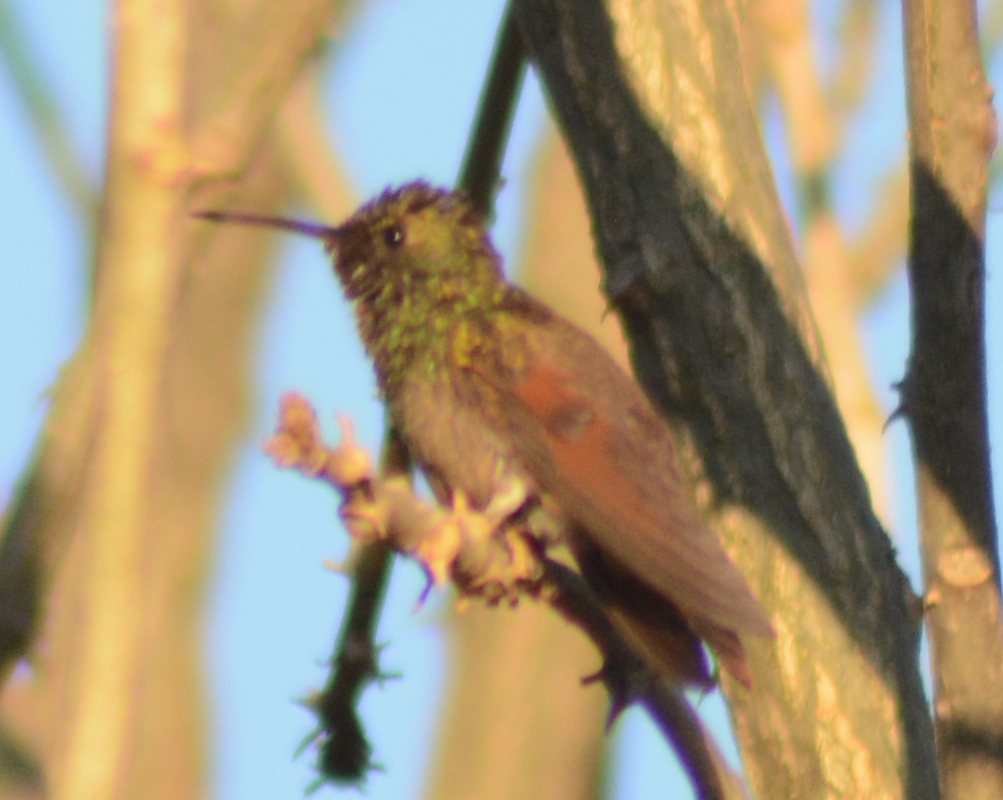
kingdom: Animalia
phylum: Chordata
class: Aves
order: Apodiformes
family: Trochilidae
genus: Saucerottia
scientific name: Saucerottia beryllina
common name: Berylline hummingbird
